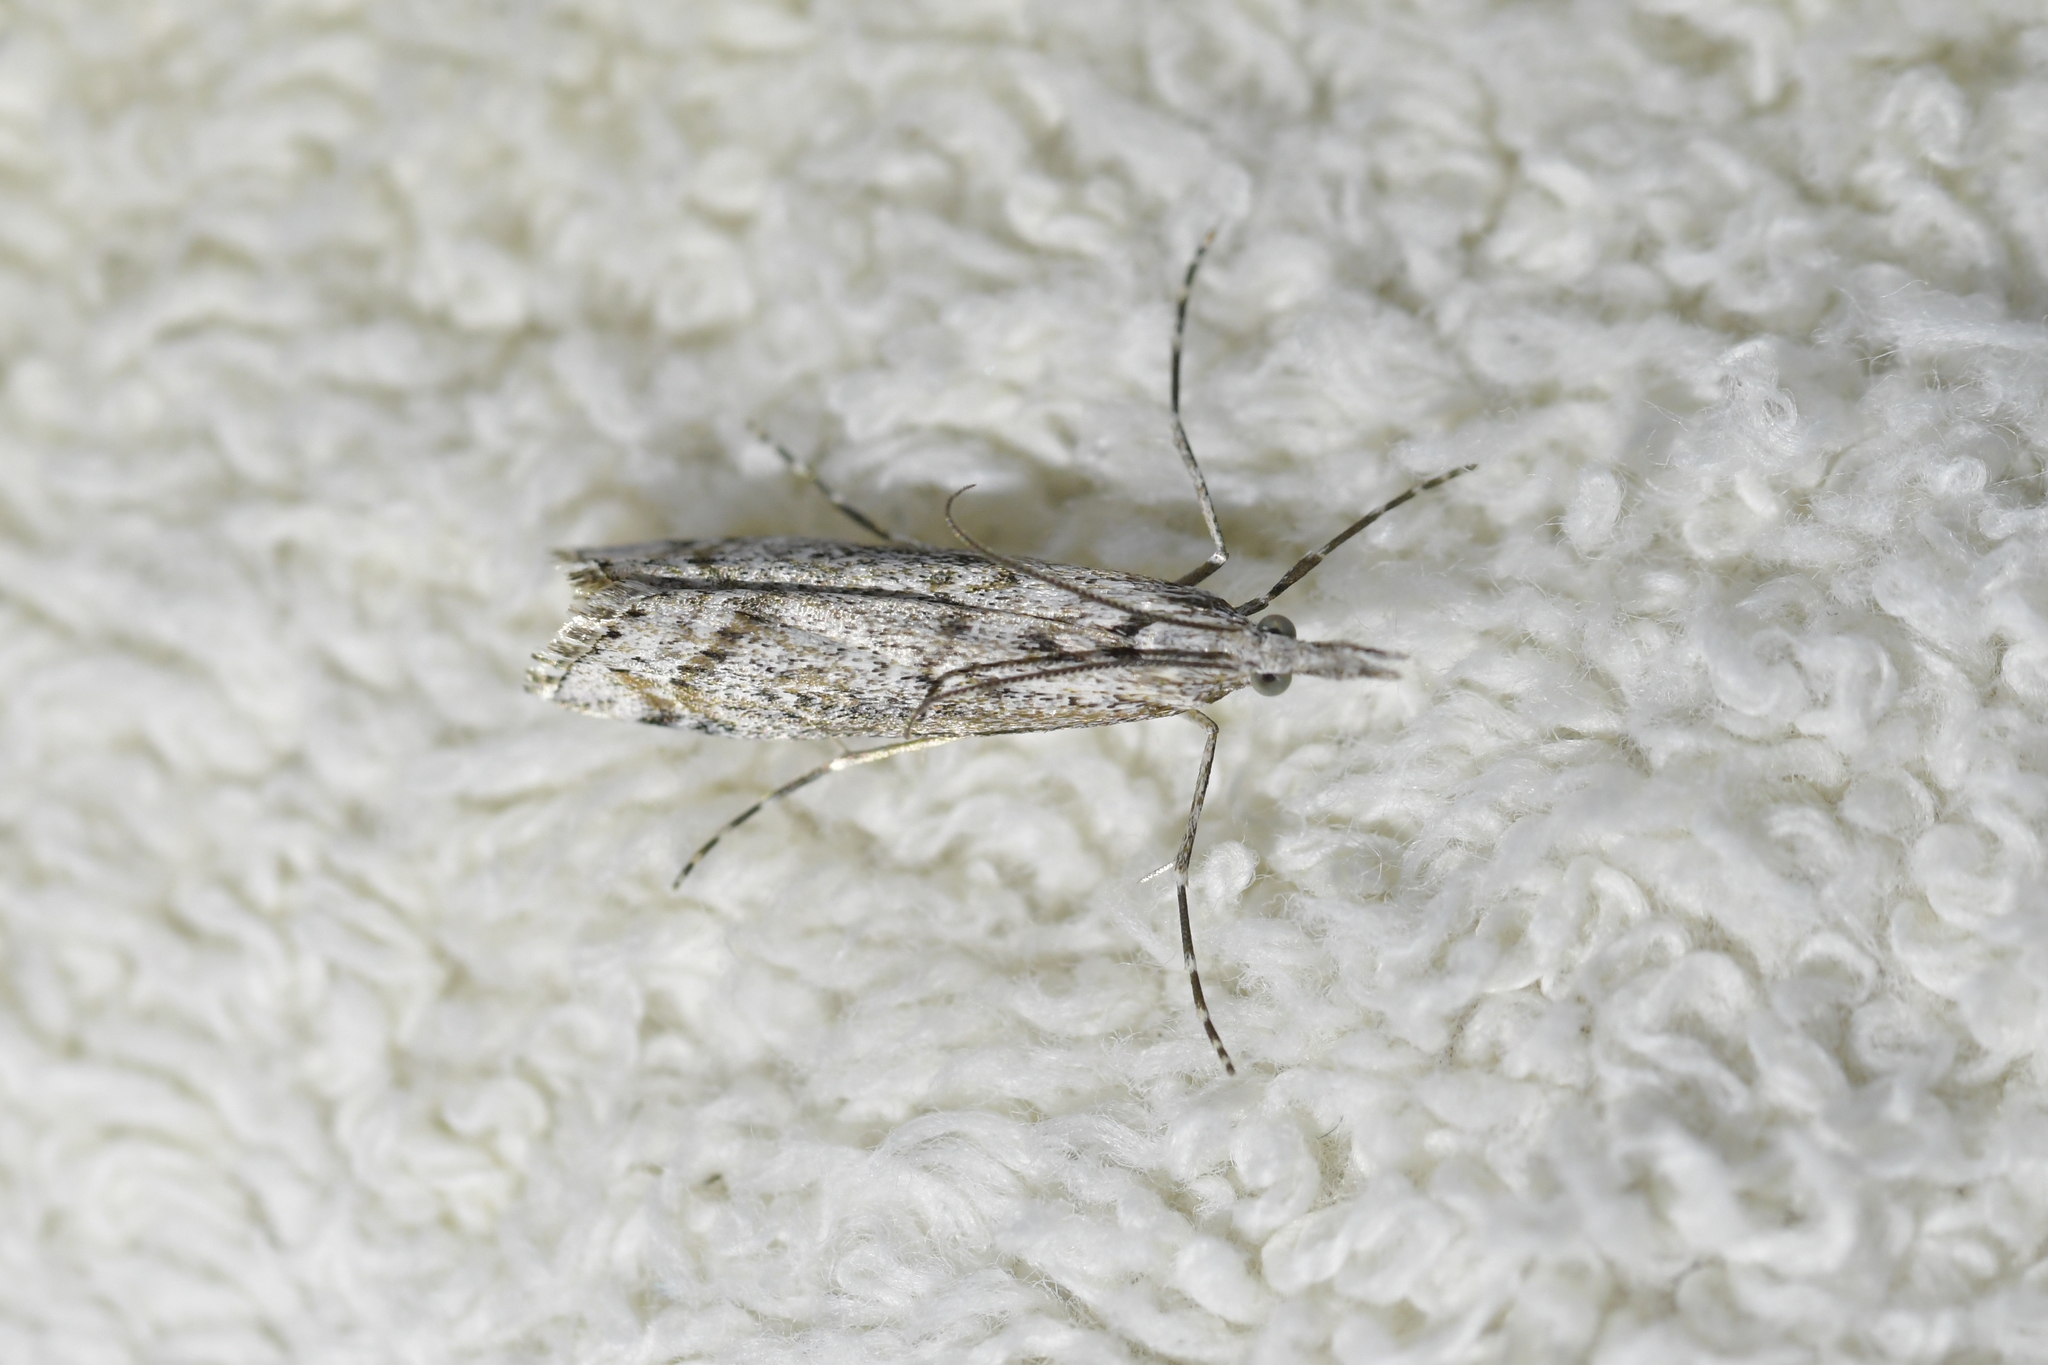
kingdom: Animalia
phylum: Arthropoda
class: Insecta
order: Lepidoptera
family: Crambidae
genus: Orocrambus
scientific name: Orocrambus cyclopicus
